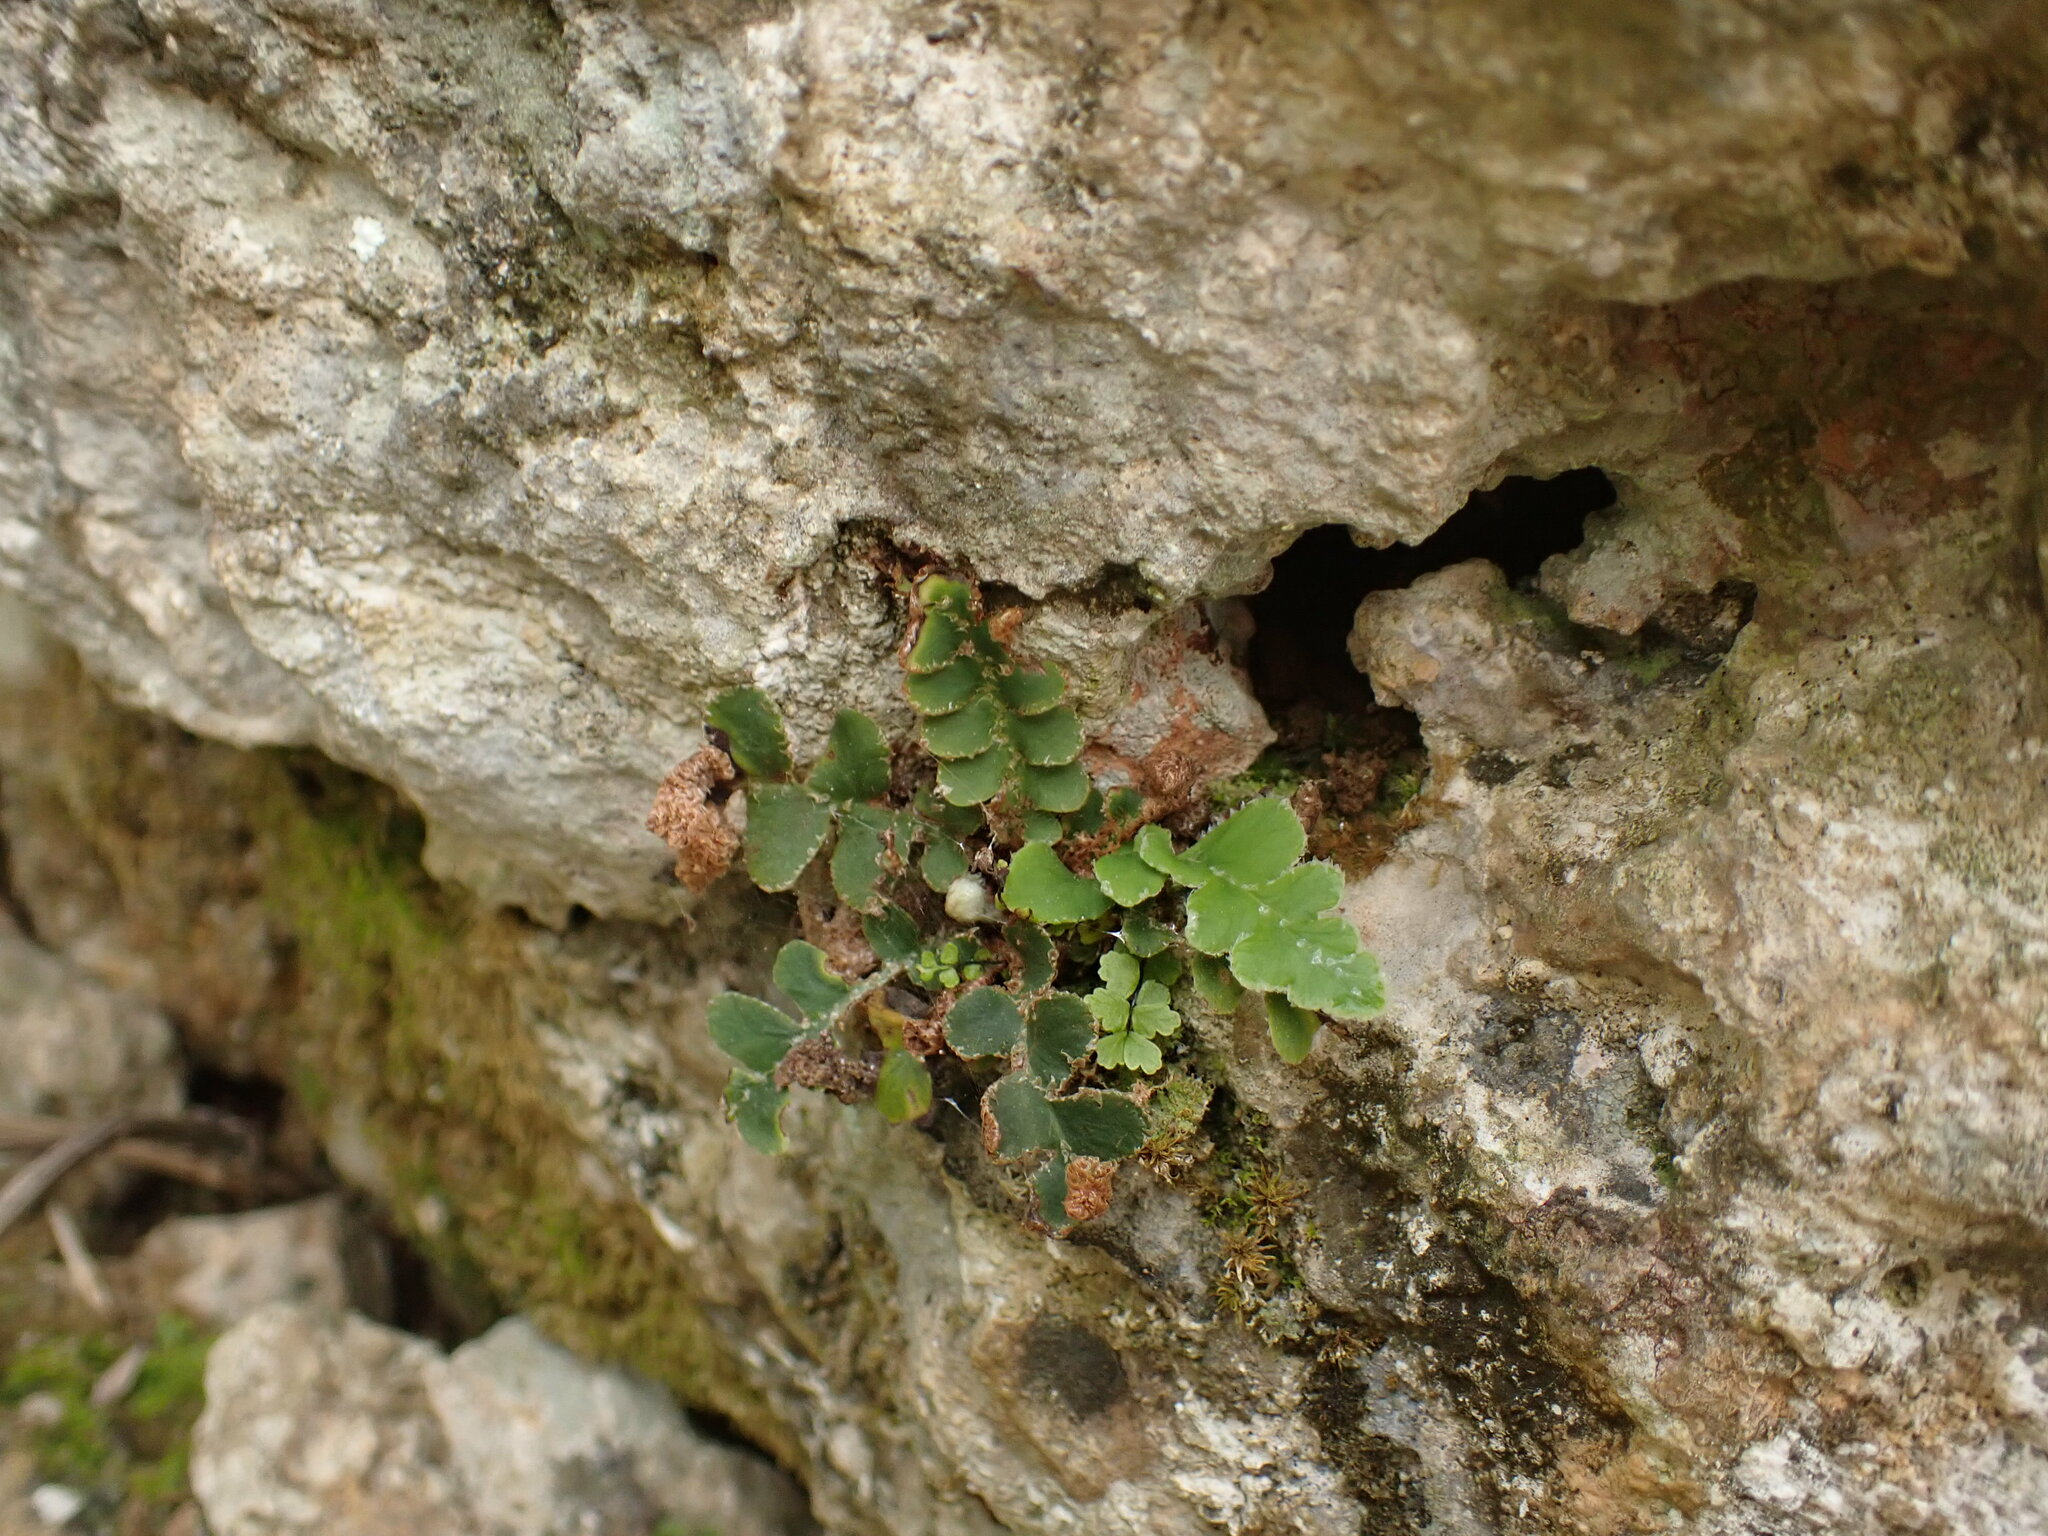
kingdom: Plantae
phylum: Tracheophyta
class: Polypodiopsida
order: Polypodiales
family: Aspleniaceae
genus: Asplenium
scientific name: Asplenium ceterach
